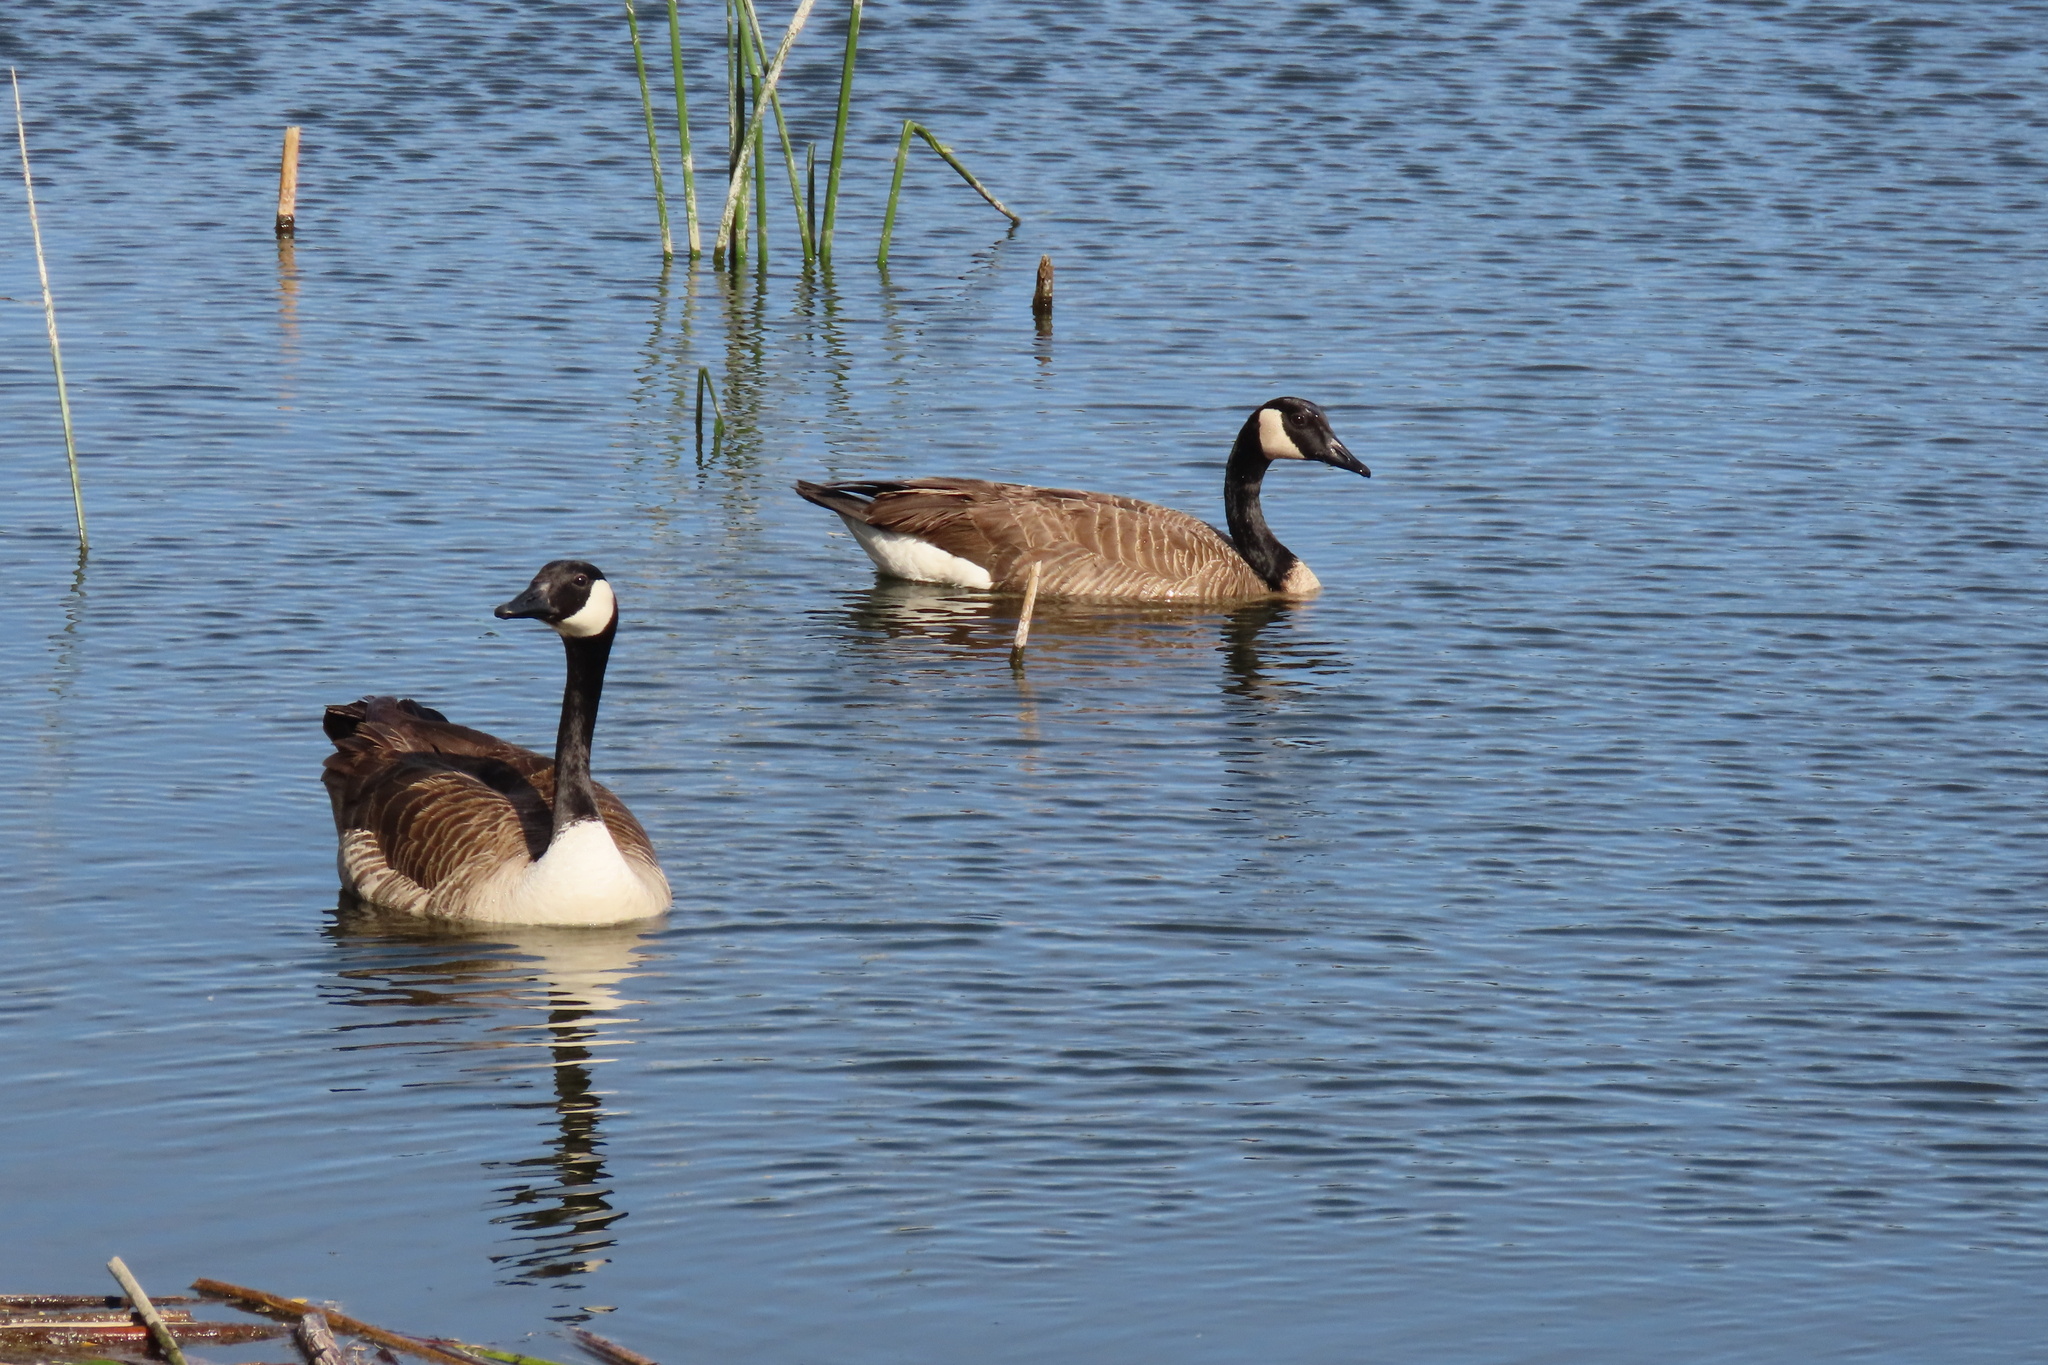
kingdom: Animalia
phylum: Chordata
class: Aves
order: Anseriformes
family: Anatidae
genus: Branta
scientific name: Branta canadensis
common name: Canada goose
